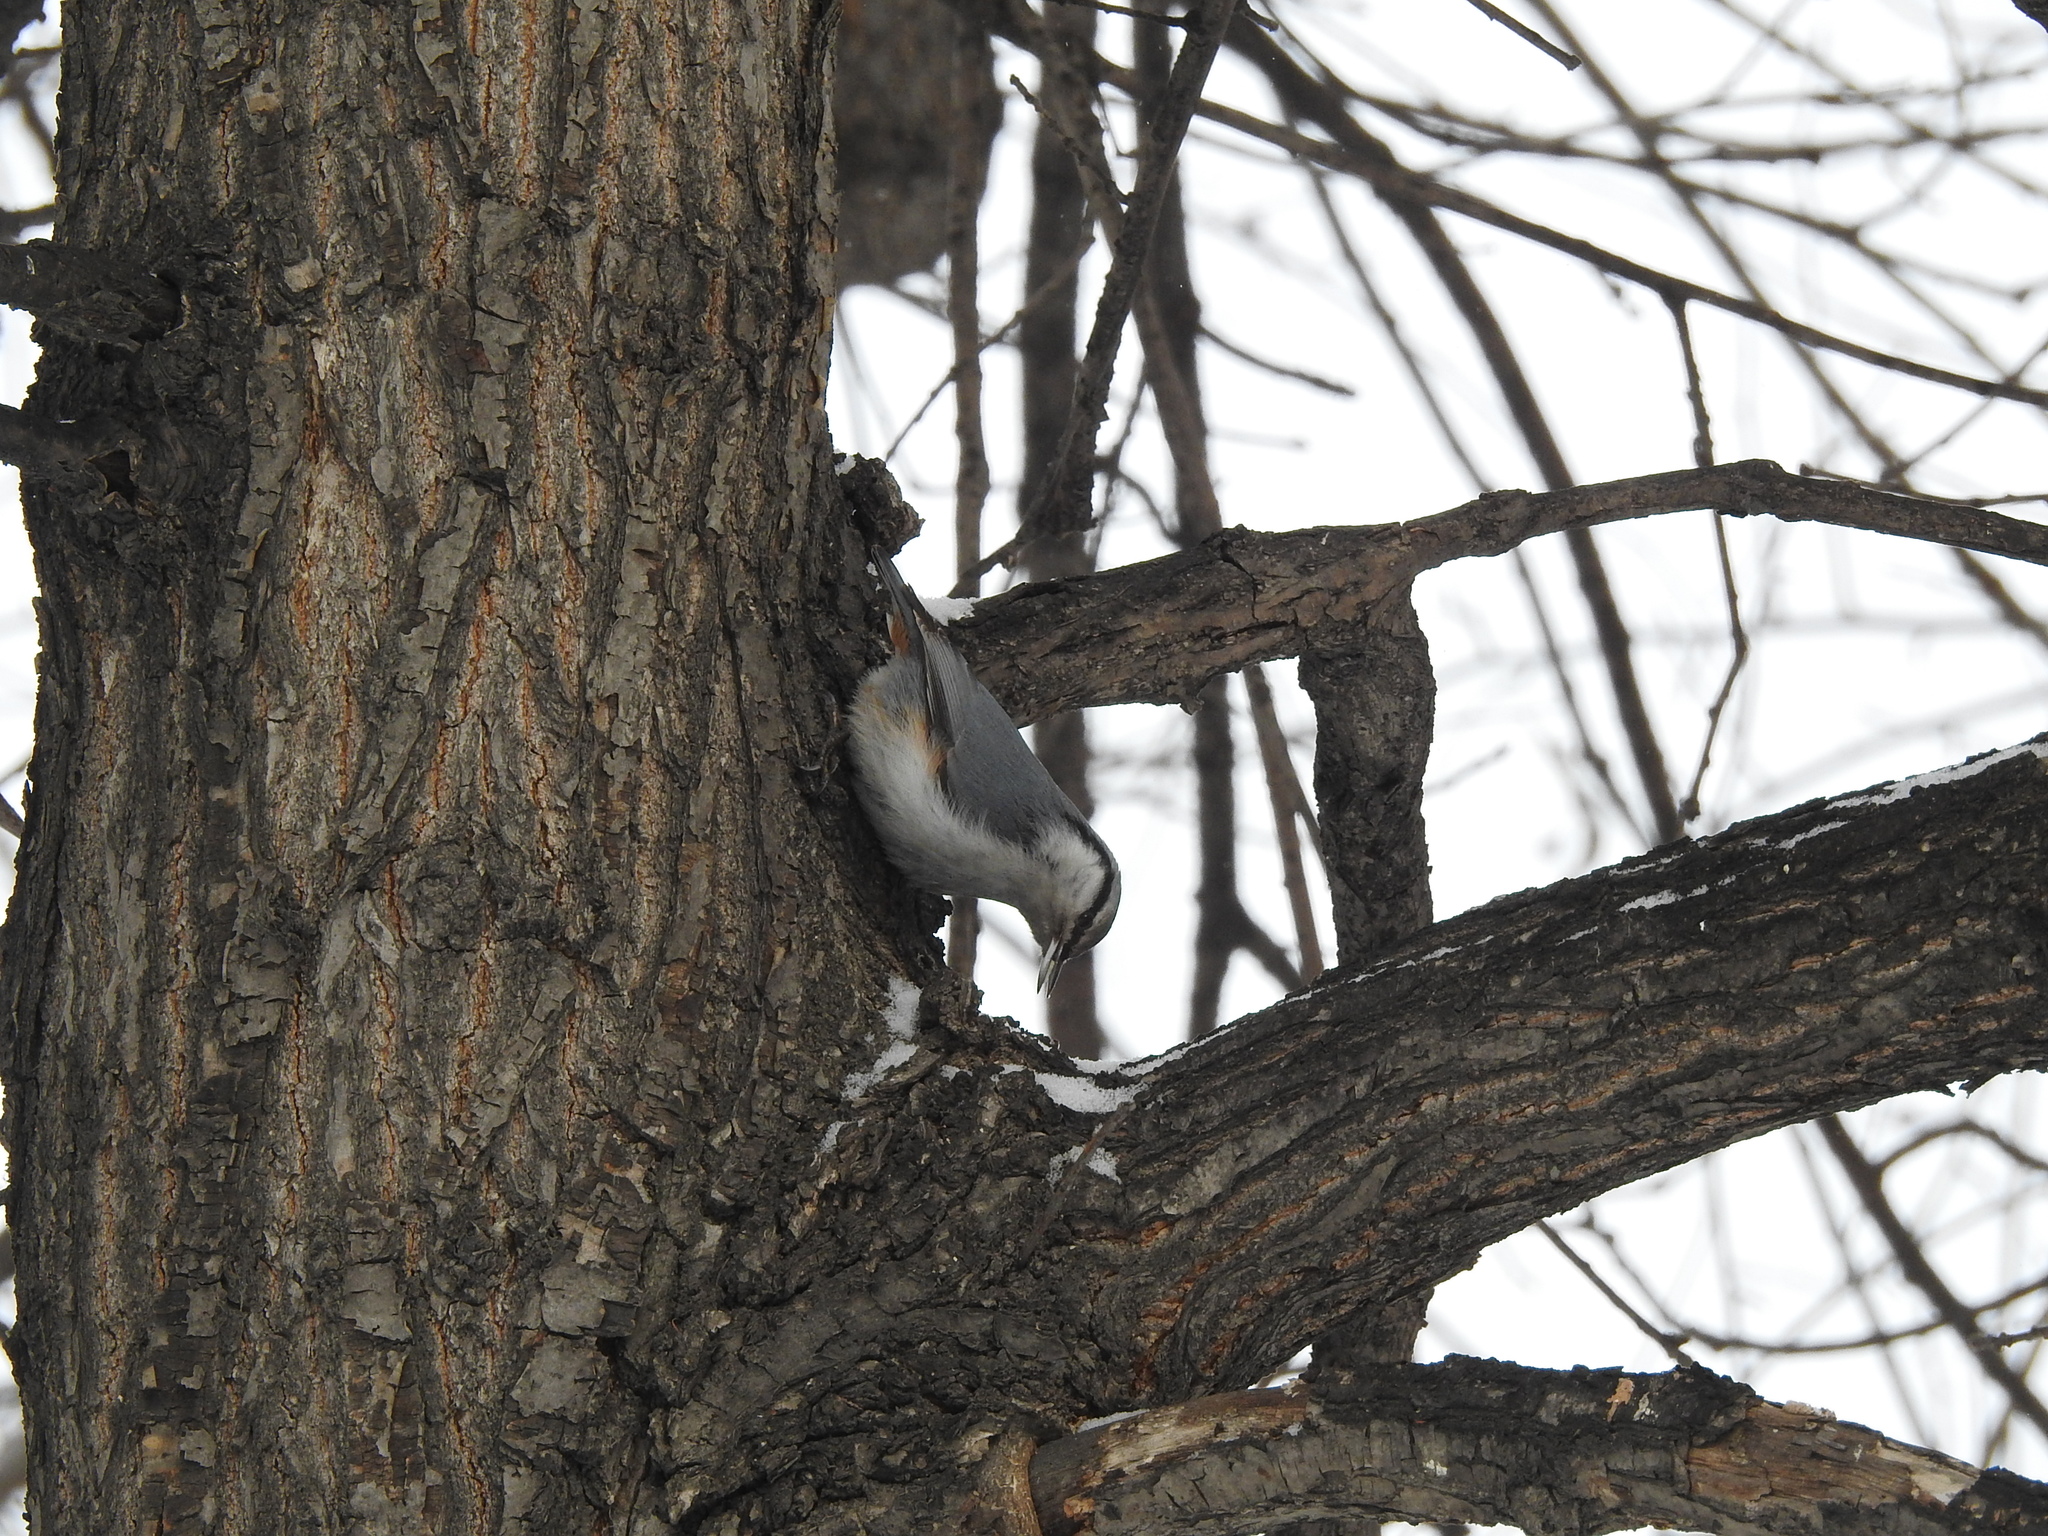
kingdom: Animalia
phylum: Chordata
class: Aves
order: Passeriformes
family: Sittidae
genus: Sitta
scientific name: Sitta europaea
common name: Eurasian nuthatch
